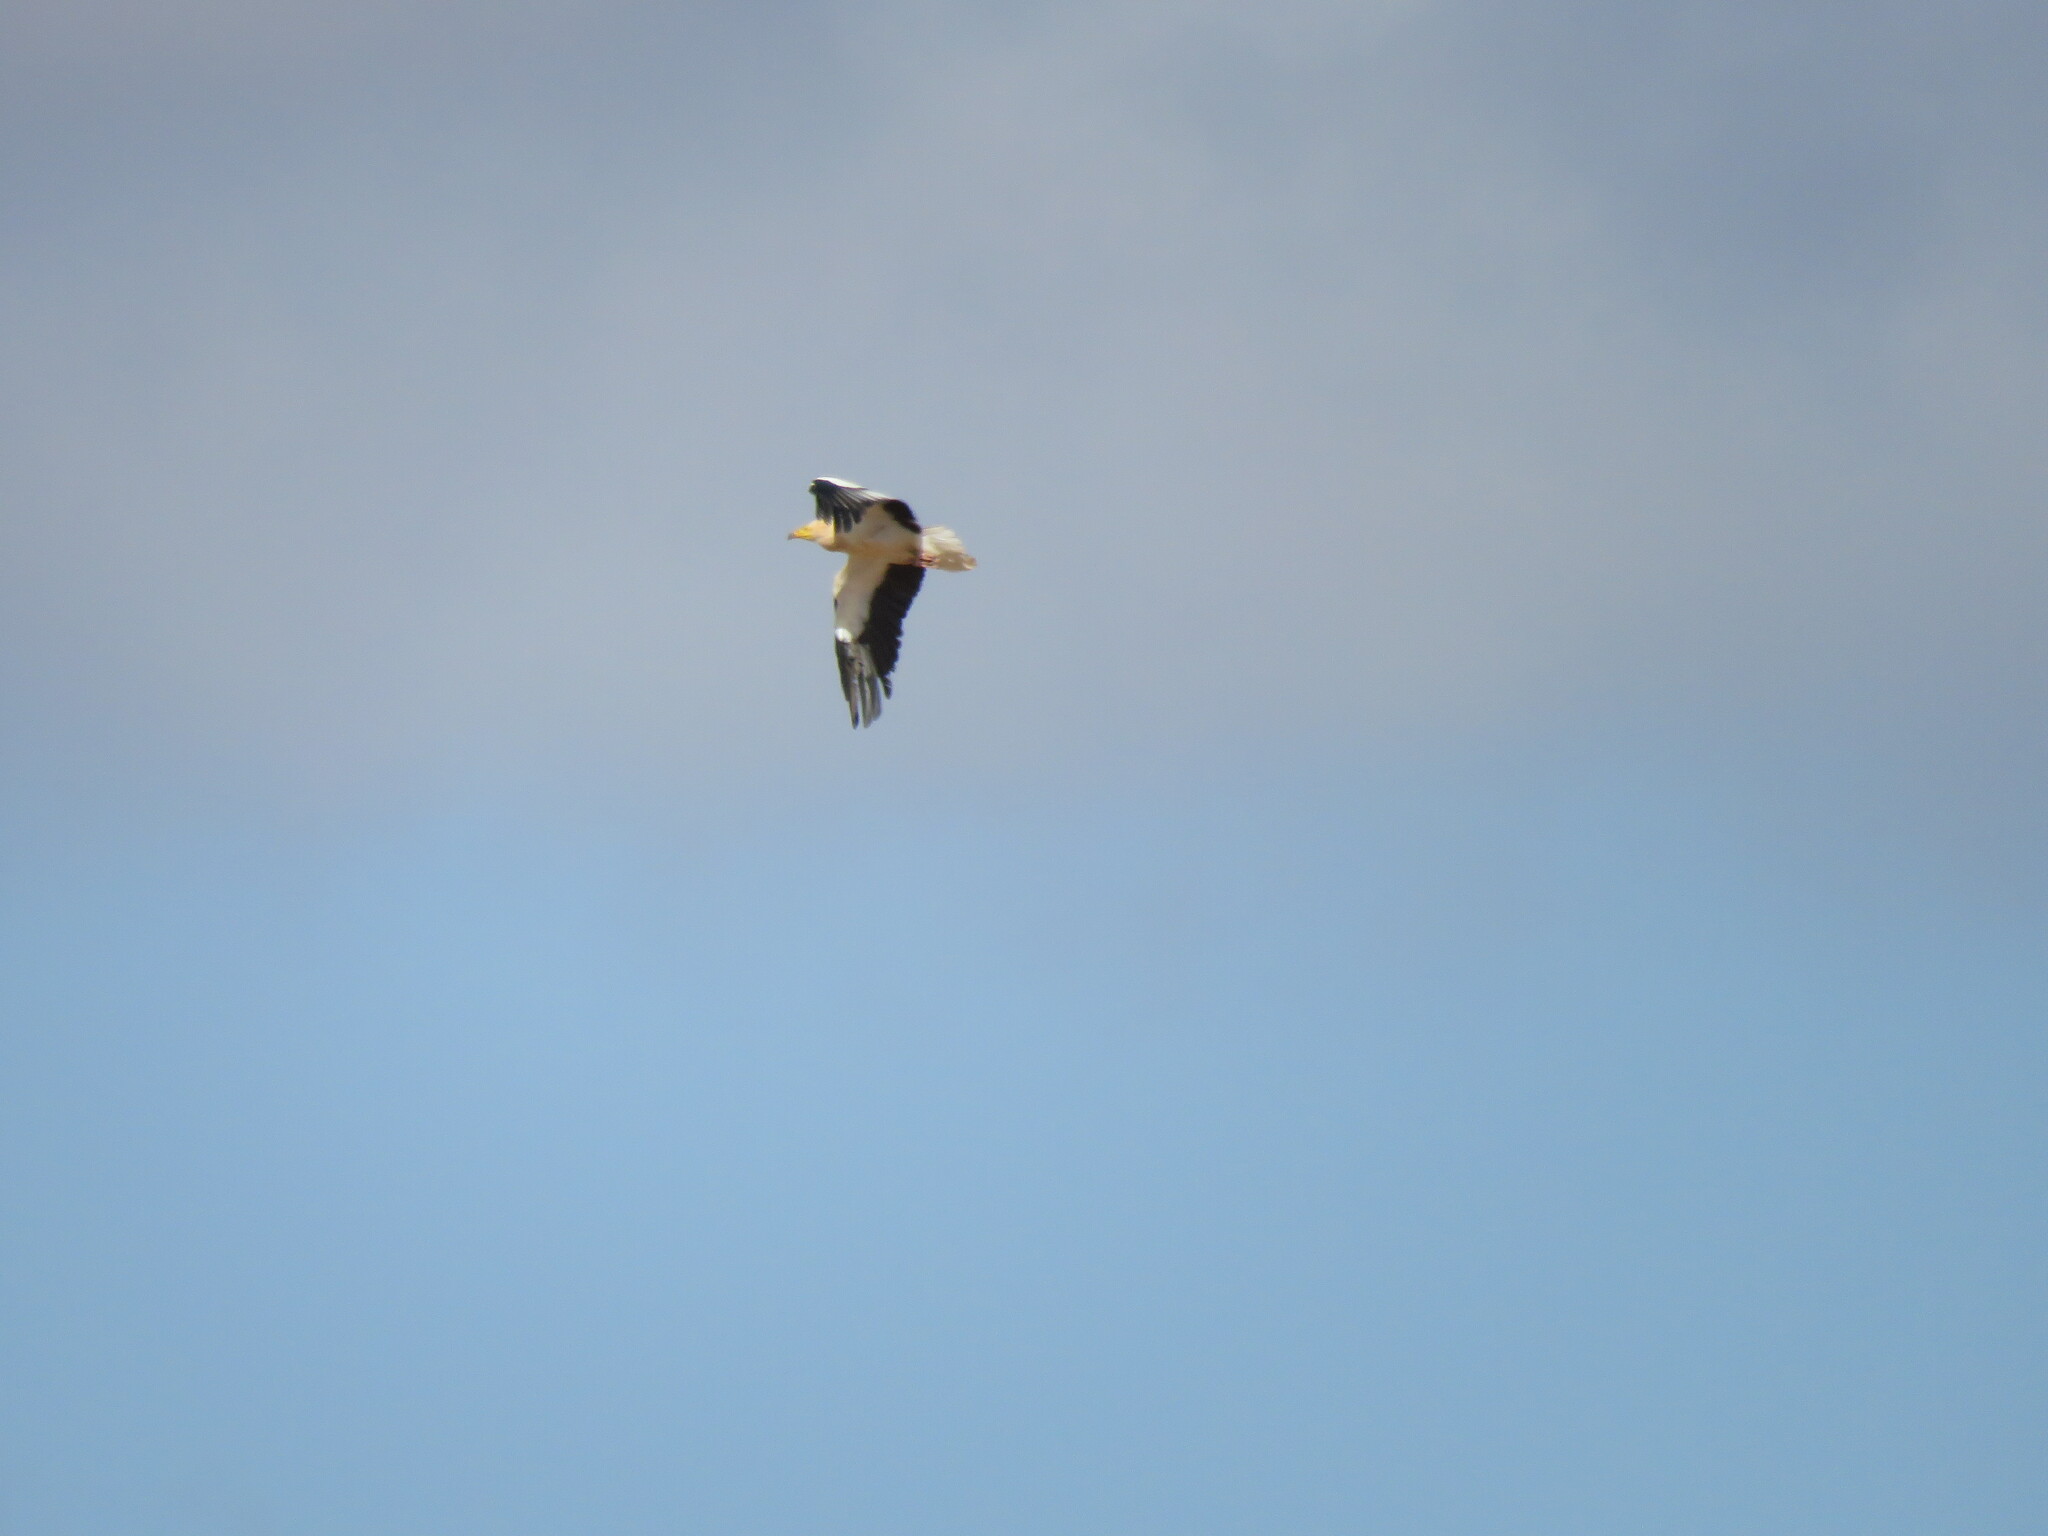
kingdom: Animalia
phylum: Chordata
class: Aves
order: Accipitriformes
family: Accipitridae
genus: Neophron
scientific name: Neophron percnopterus
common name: Egyptian vulture
